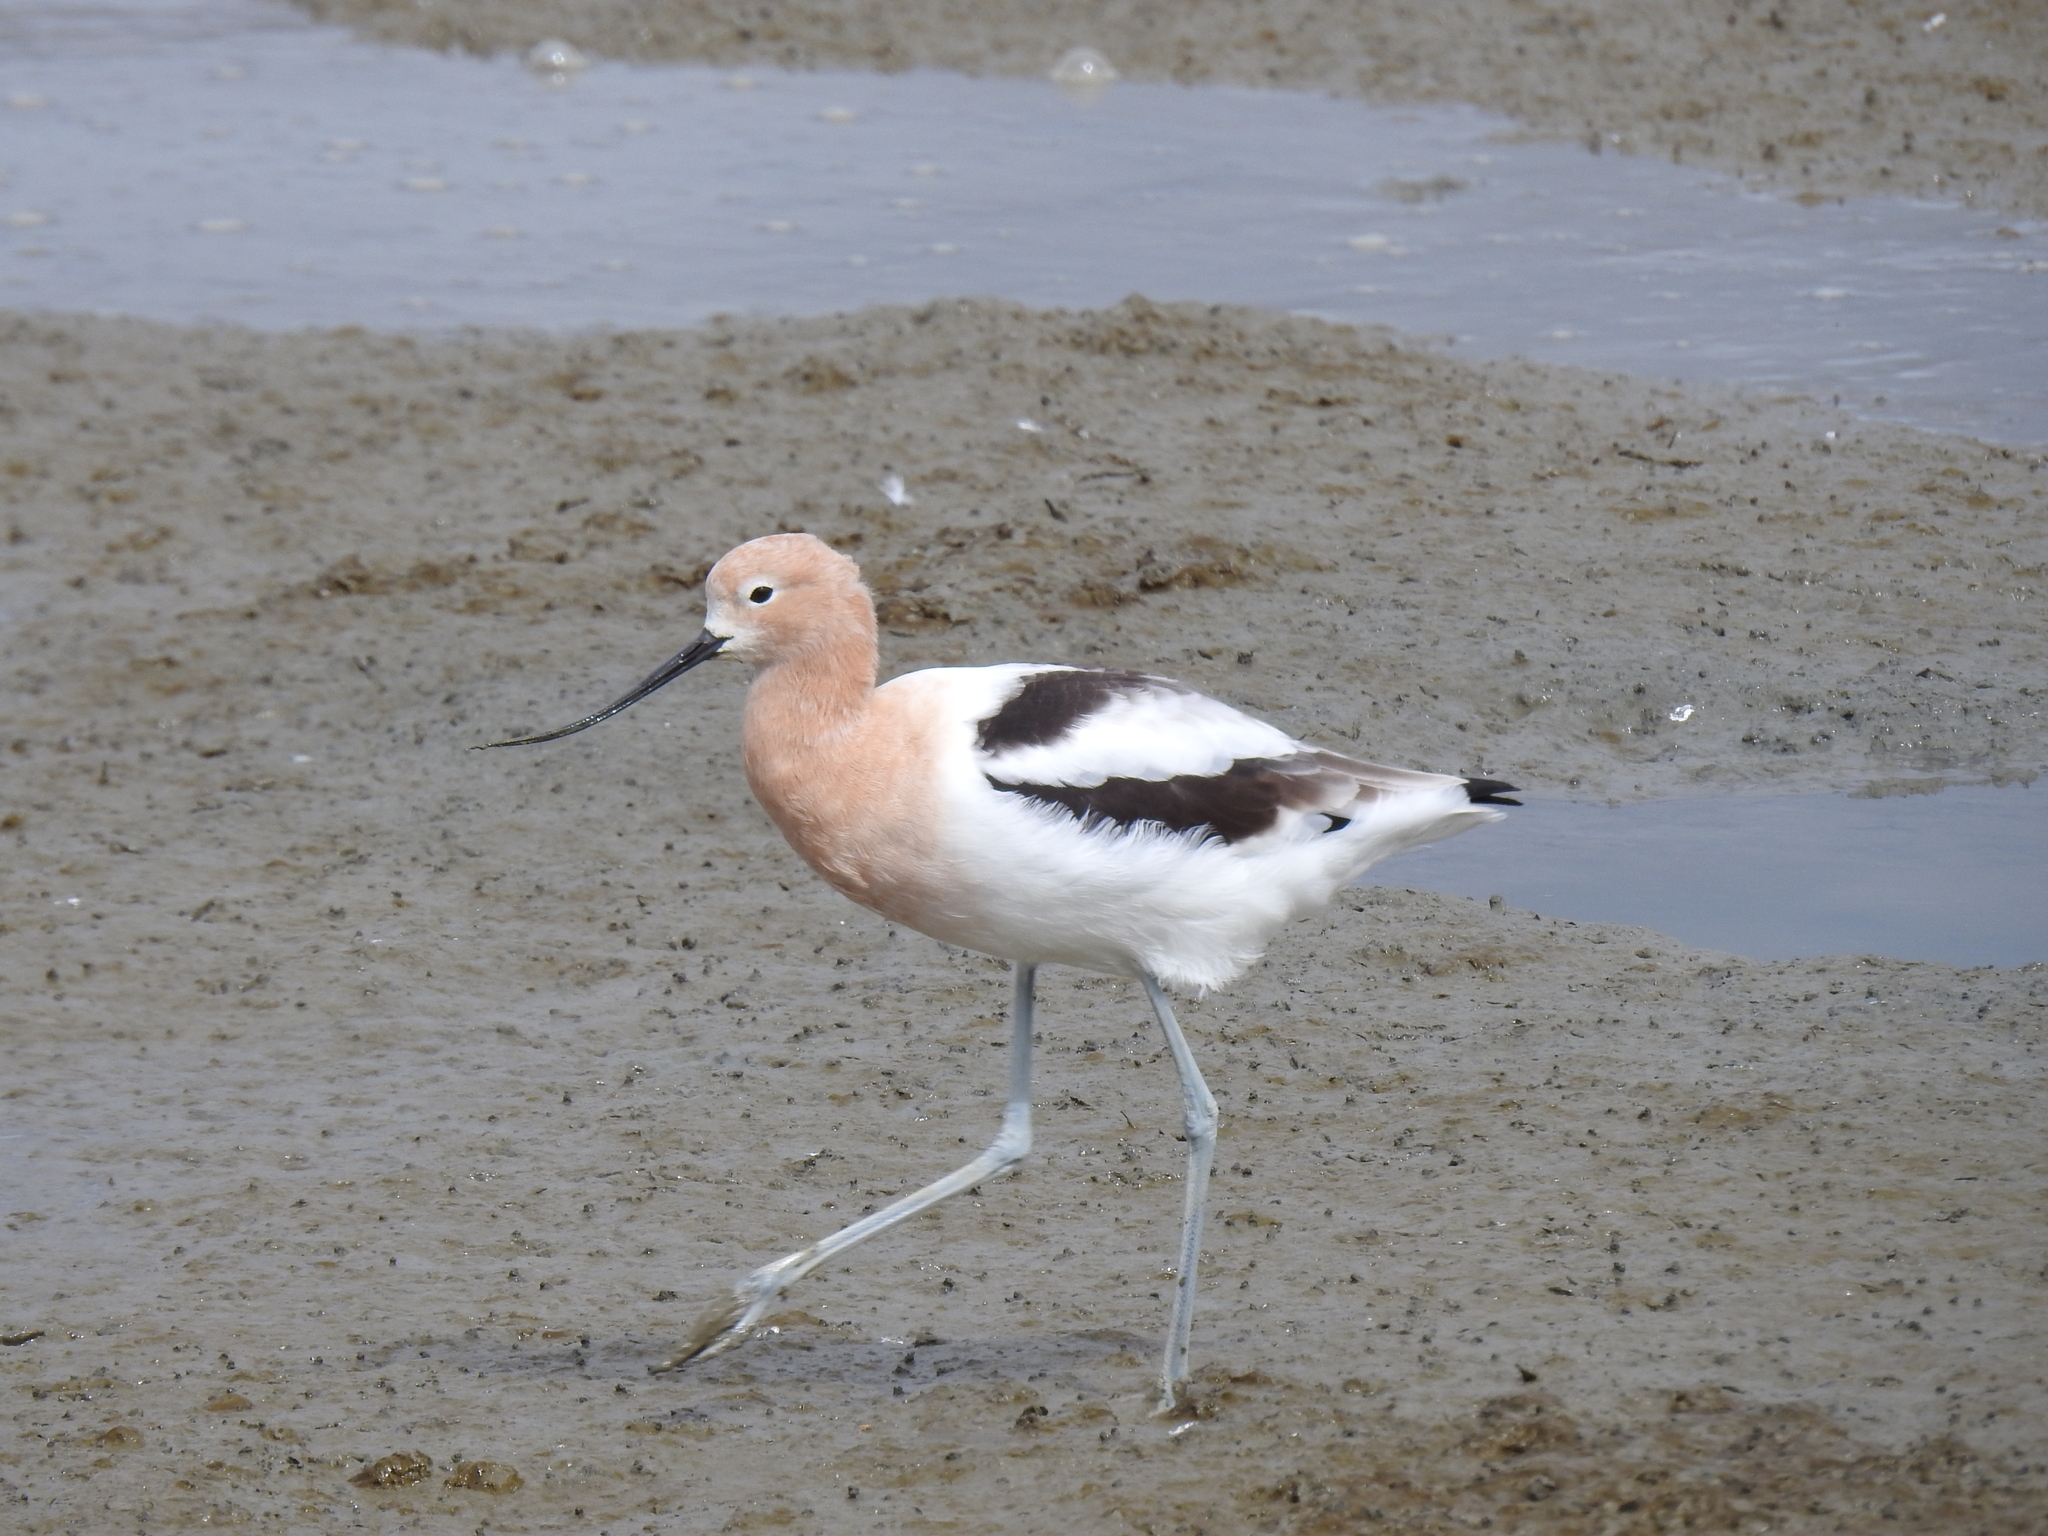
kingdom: Animalia
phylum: Chordata
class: Aves
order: Charadriiformes
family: Recurvirostridae
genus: Recurvirostra
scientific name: Recurvirostra americana
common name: American avocet
